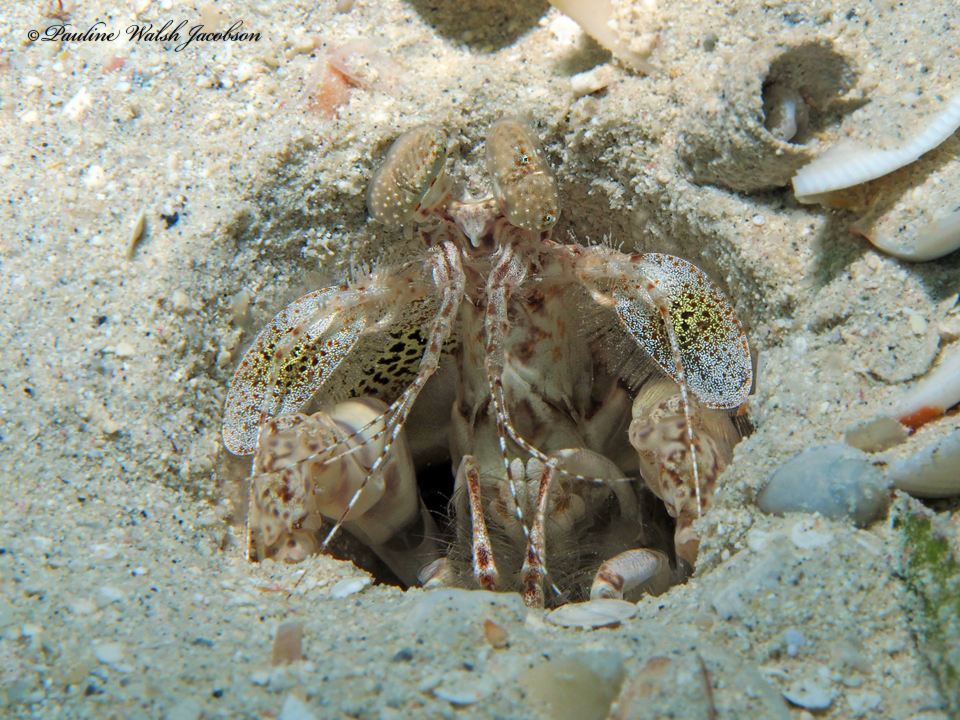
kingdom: Animalia
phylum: Arthropoda
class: Malacostraca
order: Stomatopoda
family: Lysiosquillidae
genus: Lysiosquilla
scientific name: Lysiosquilla scabricauda
